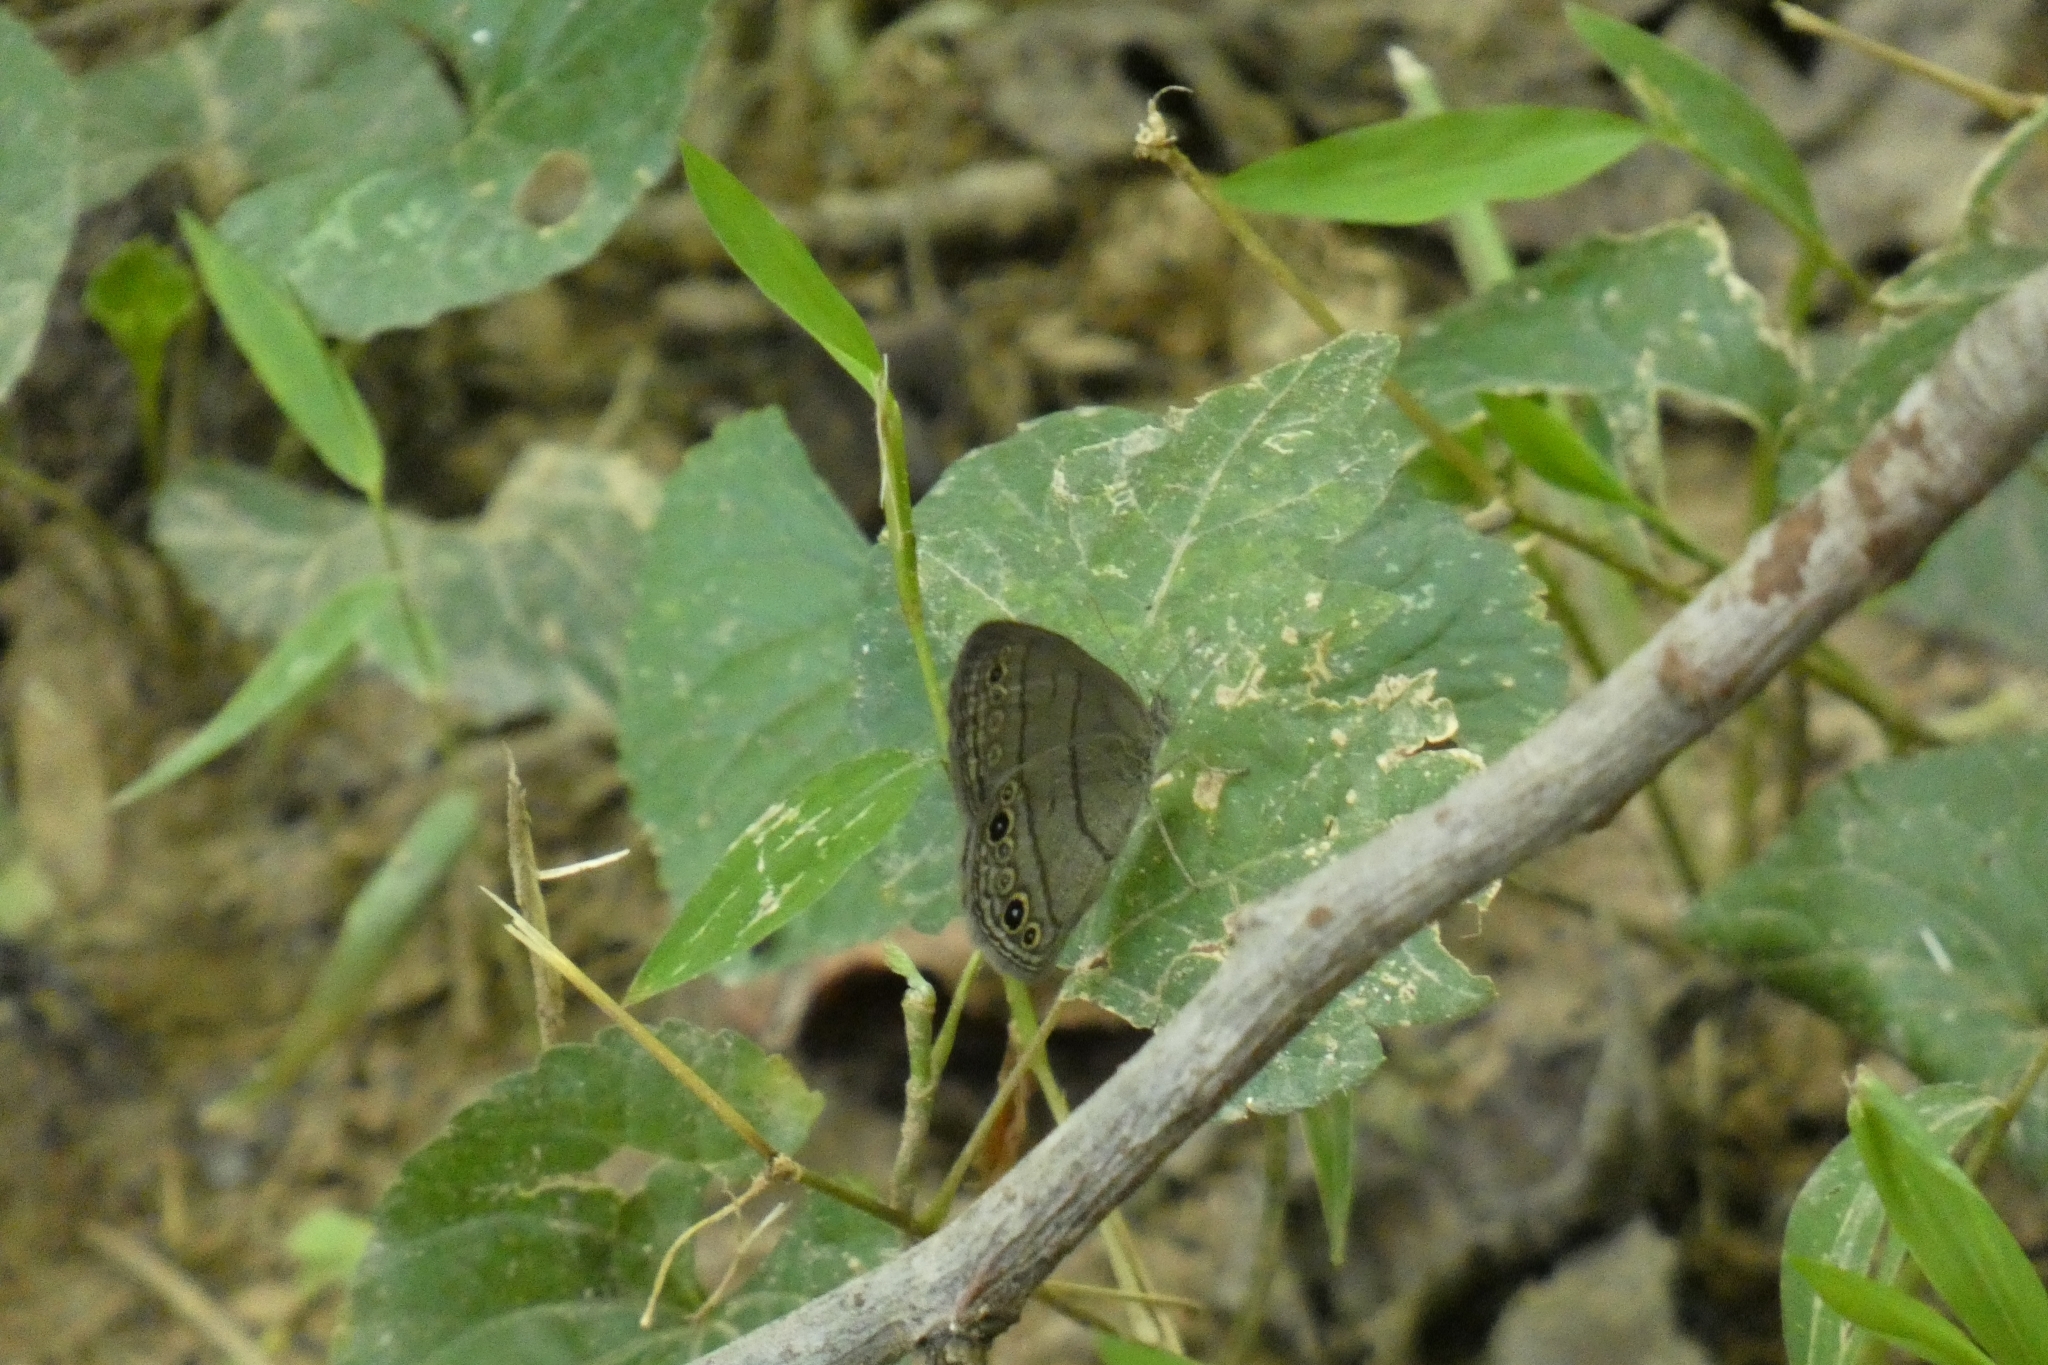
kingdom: Animalia
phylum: Arthropoda
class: Insecta
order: Lepidoptera
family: Nymphalidae
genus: Hermeuptychia
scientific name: Hermeuptychia hermes
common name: Hermes satyr
